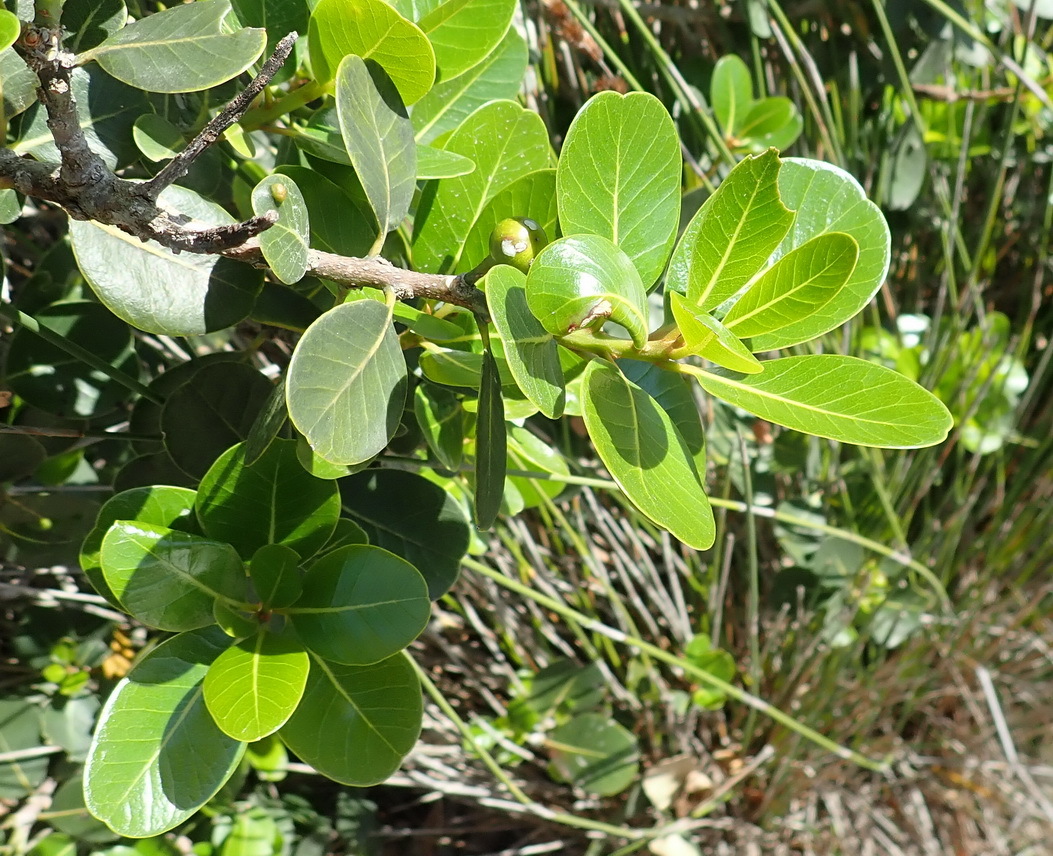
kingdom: Plantae
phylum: Tracheophyta
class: Magnoliopsida
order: Ericales
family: Sapotaceae
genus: Sideroxylon
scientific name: Sideroxylon inerme
